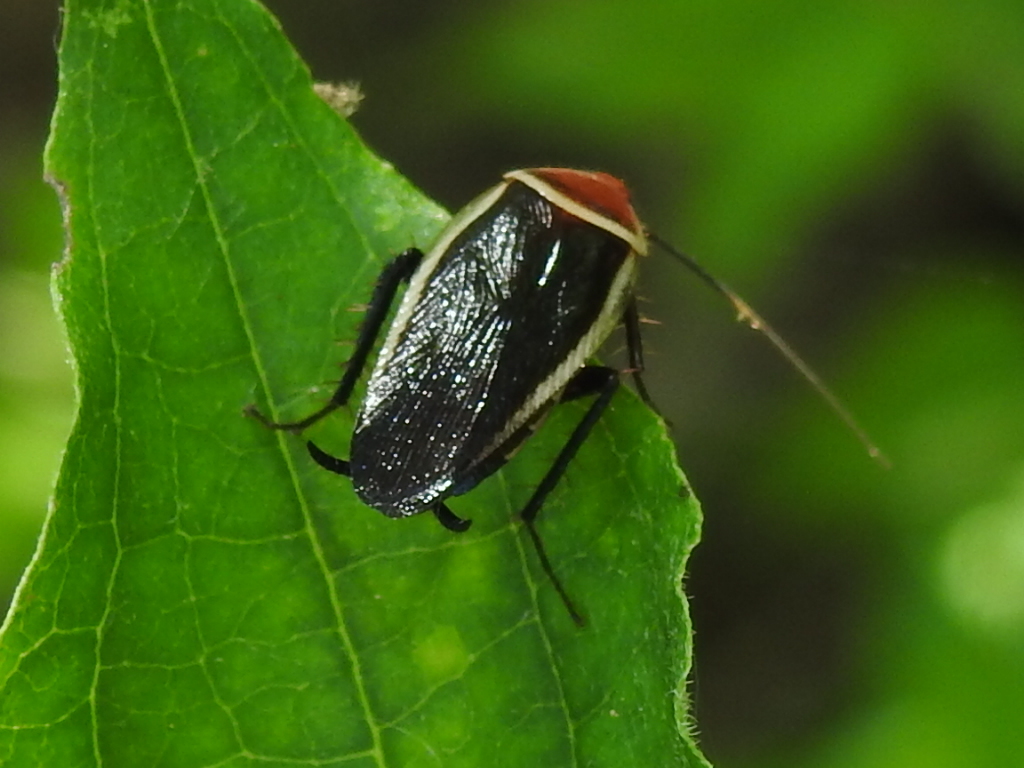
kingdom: Animalia
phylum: Arthropoda
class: Insecta
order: Blattodea
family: Ectobiidae
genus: Pseudomops
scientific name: Pseudomops septentrionalis
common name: Pale-bordered field cockroach
